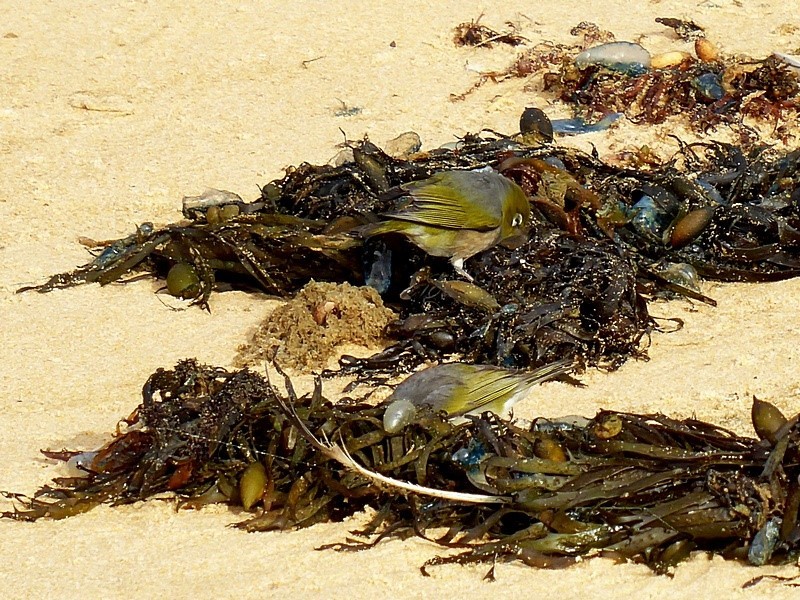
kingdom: Animalia
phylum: Chordata
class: Aves
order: Passeriformes
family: Zosteropidae
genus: Zosterops
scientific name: Zosterops lateralis
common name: Silvereye
